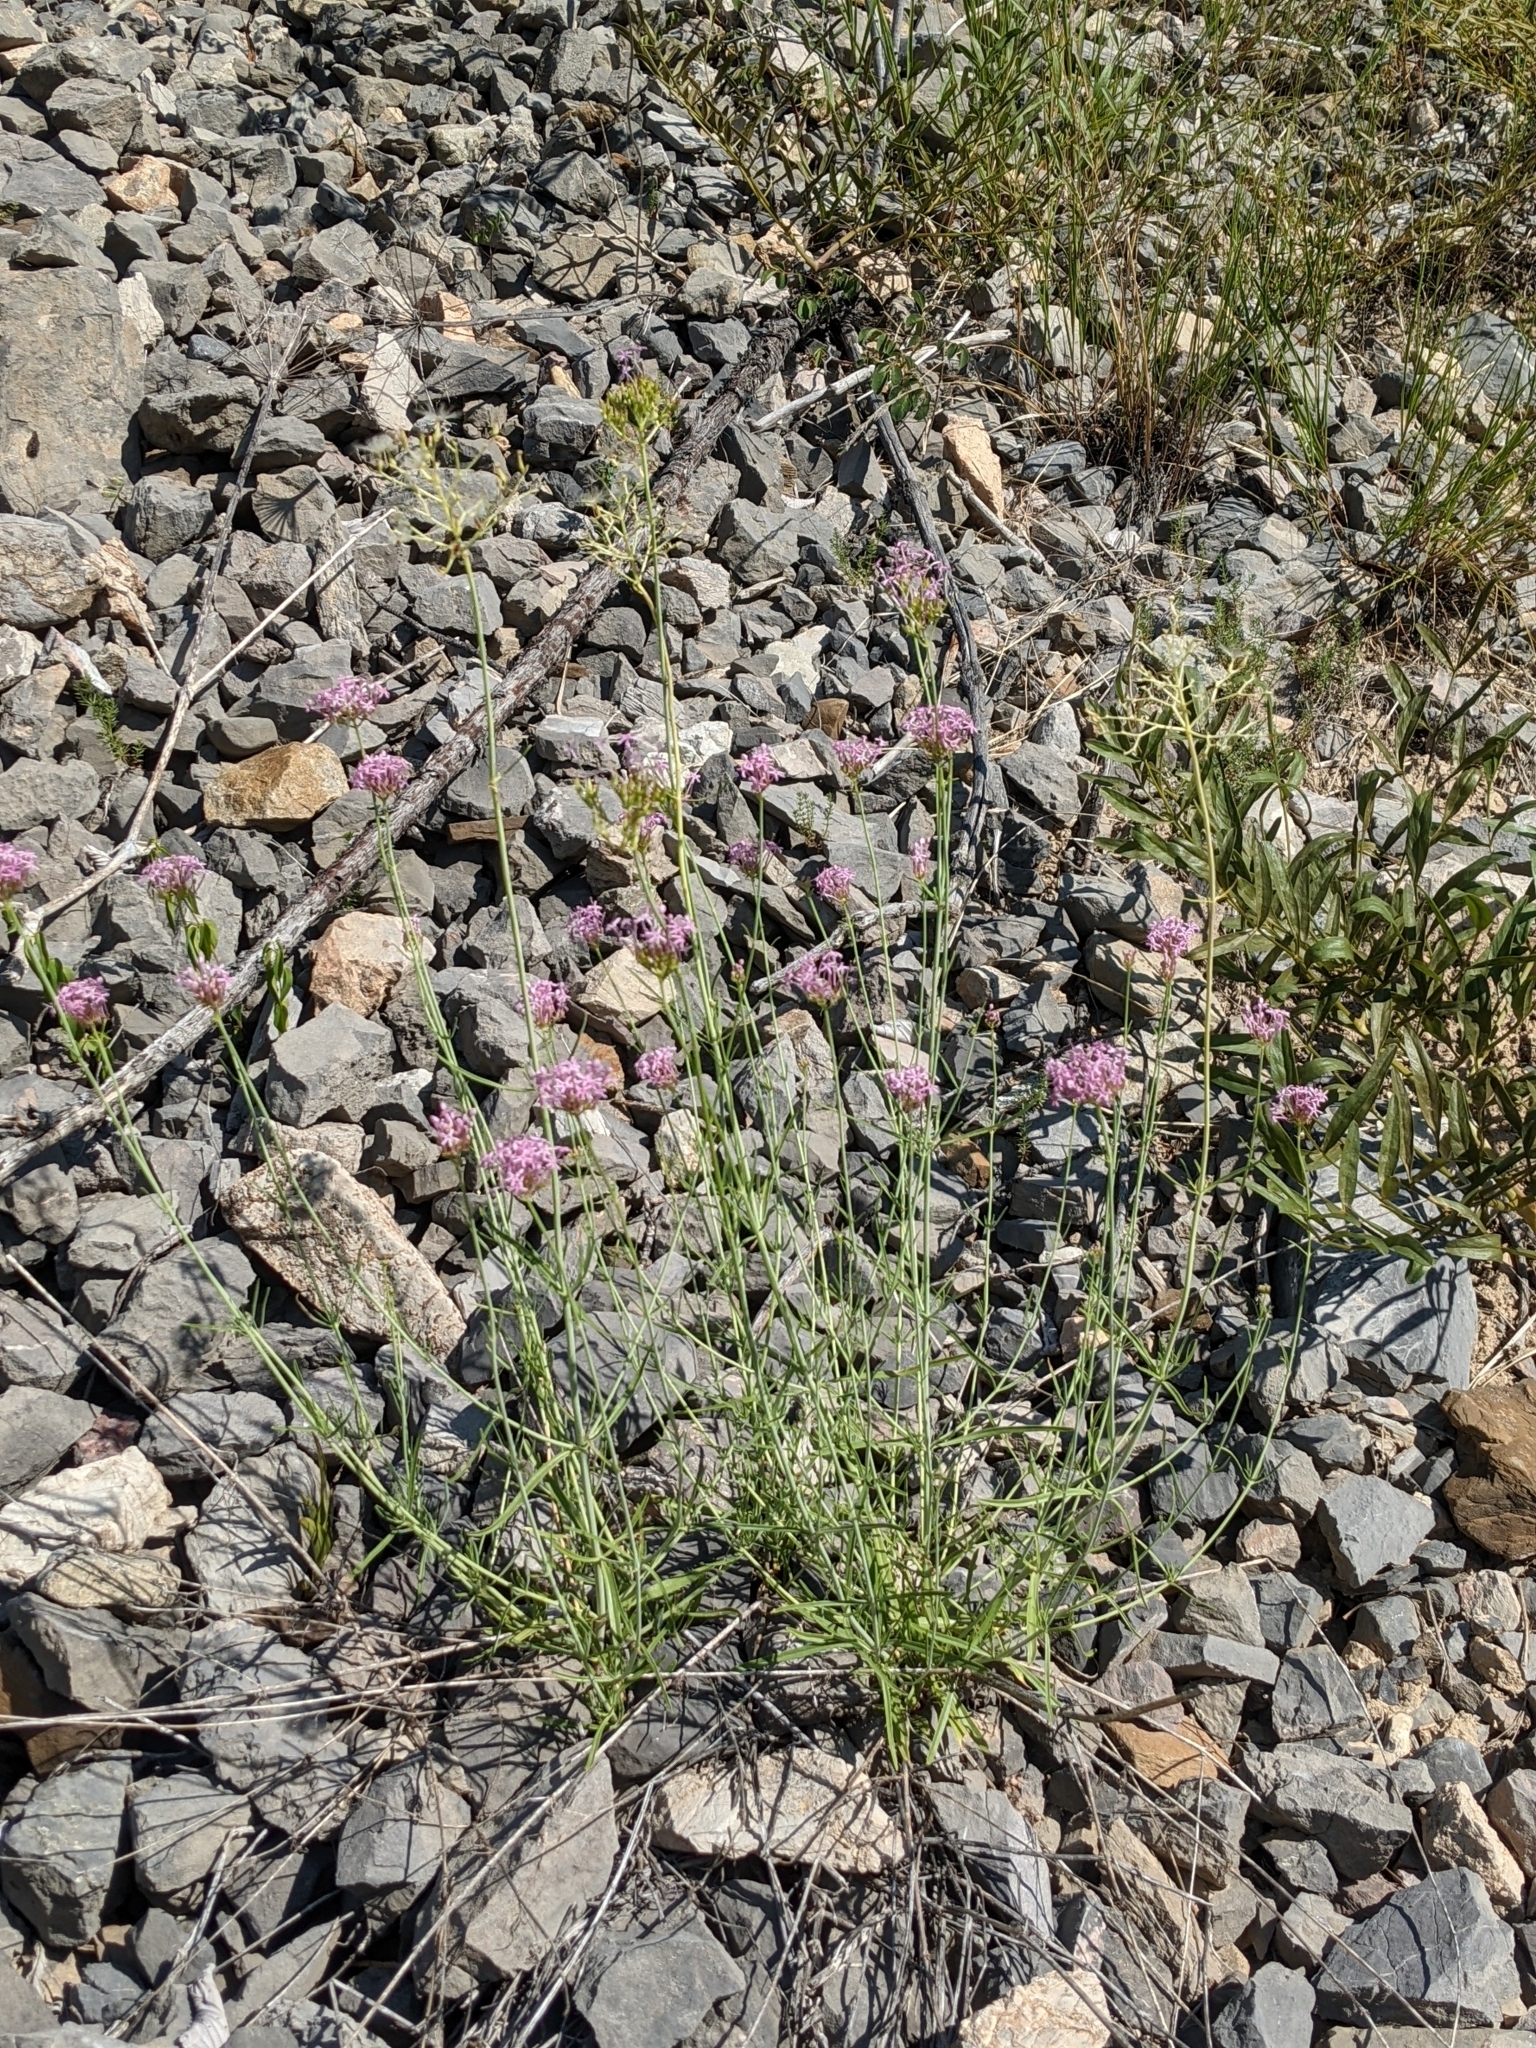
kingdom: Plantae
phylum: Tracheophyta
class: Magnoliopsida
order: Dipsacales
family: Caprifoliaceae
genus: Centranthus
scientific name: Centranthus angustifolius
